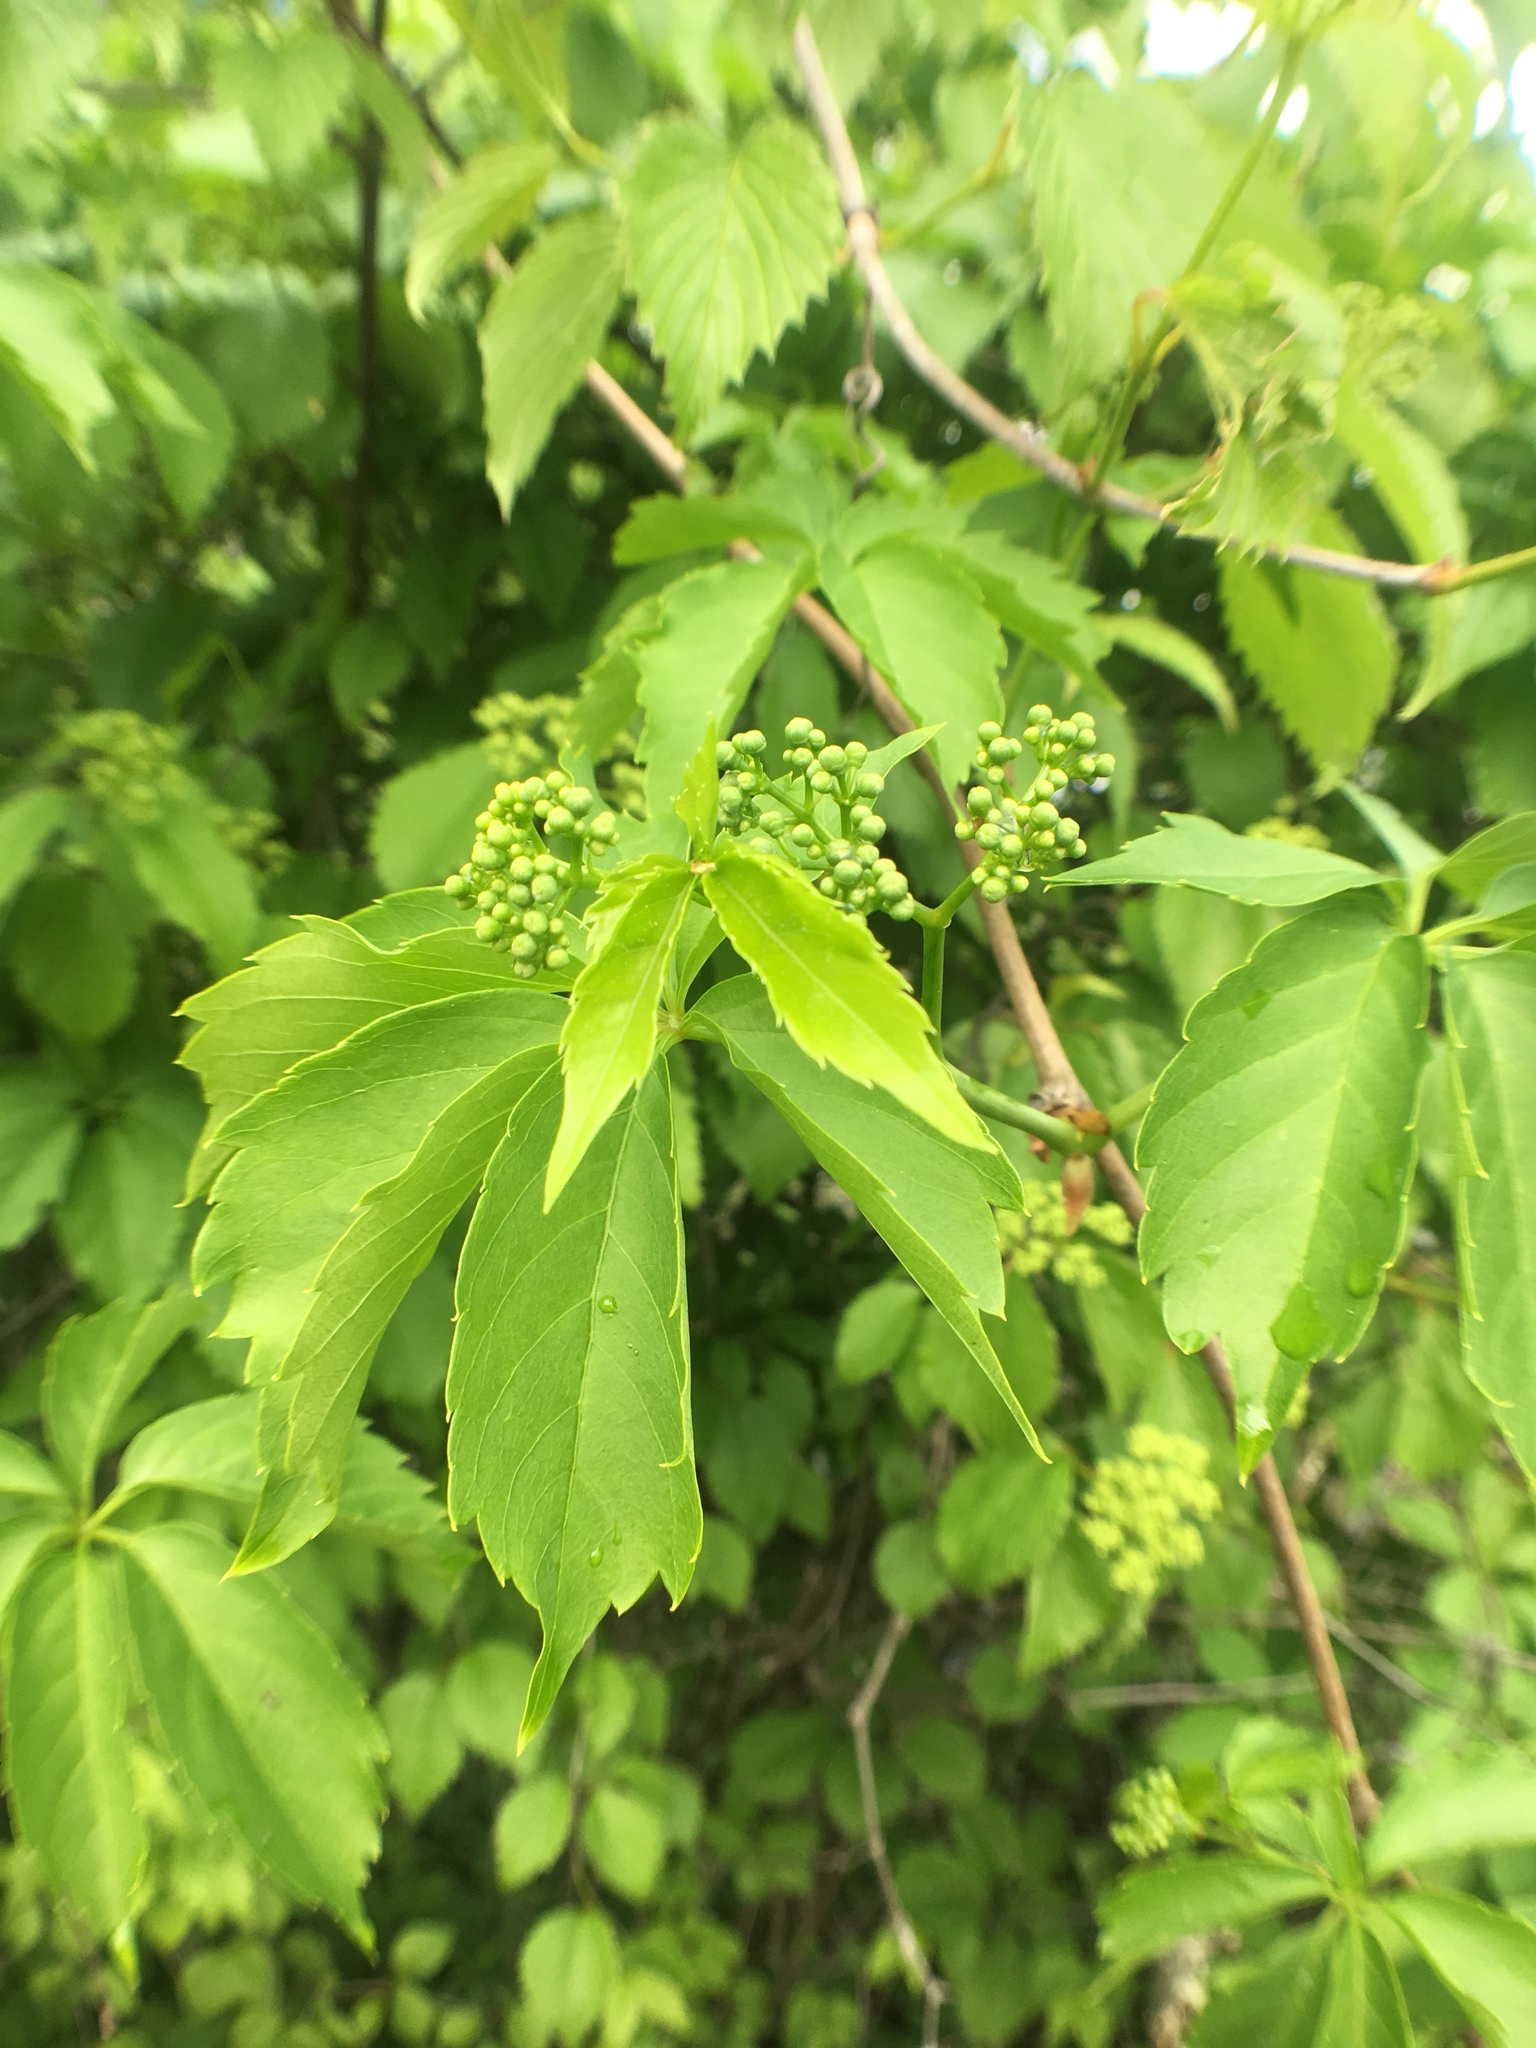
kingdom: Plantae
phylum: Tracheophyta
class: Magnoliopsida
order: Vitales
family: Vitaceae
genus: Parthenocissus
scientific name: Parthenocissus quinquefolia
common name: Virginia-creeper
